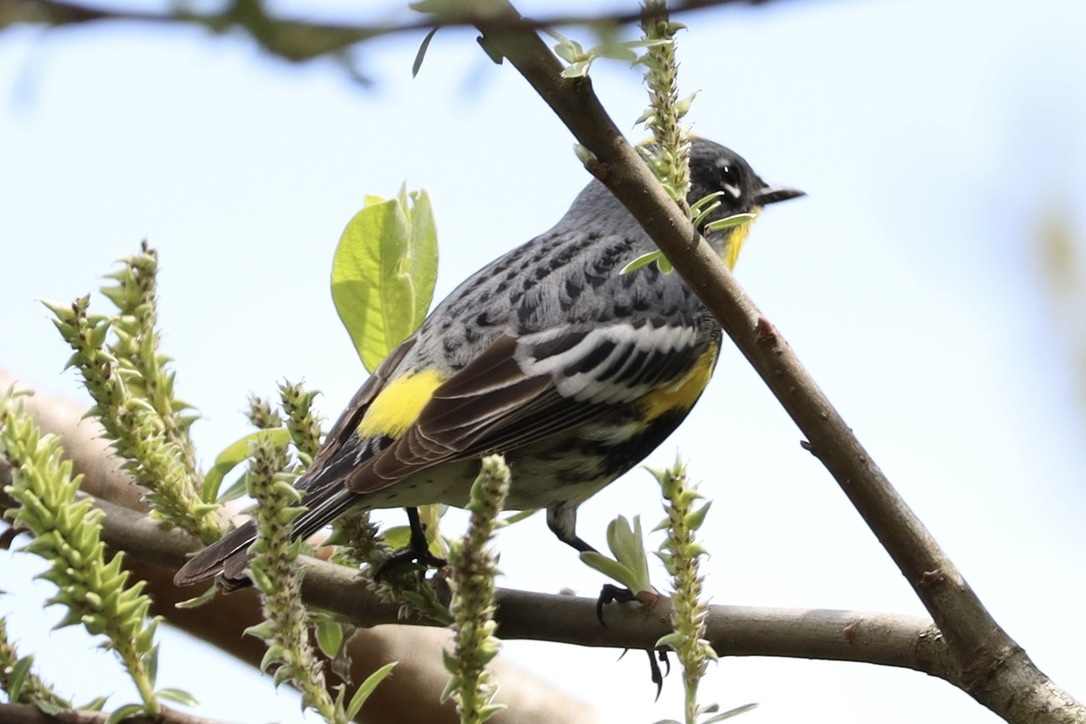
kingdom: Animalia
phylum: Chordata
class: Aves
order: Passeriformes
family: Parulidae
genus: Setophaga
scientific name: Setophaga coronata
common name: Myrtle warbler
